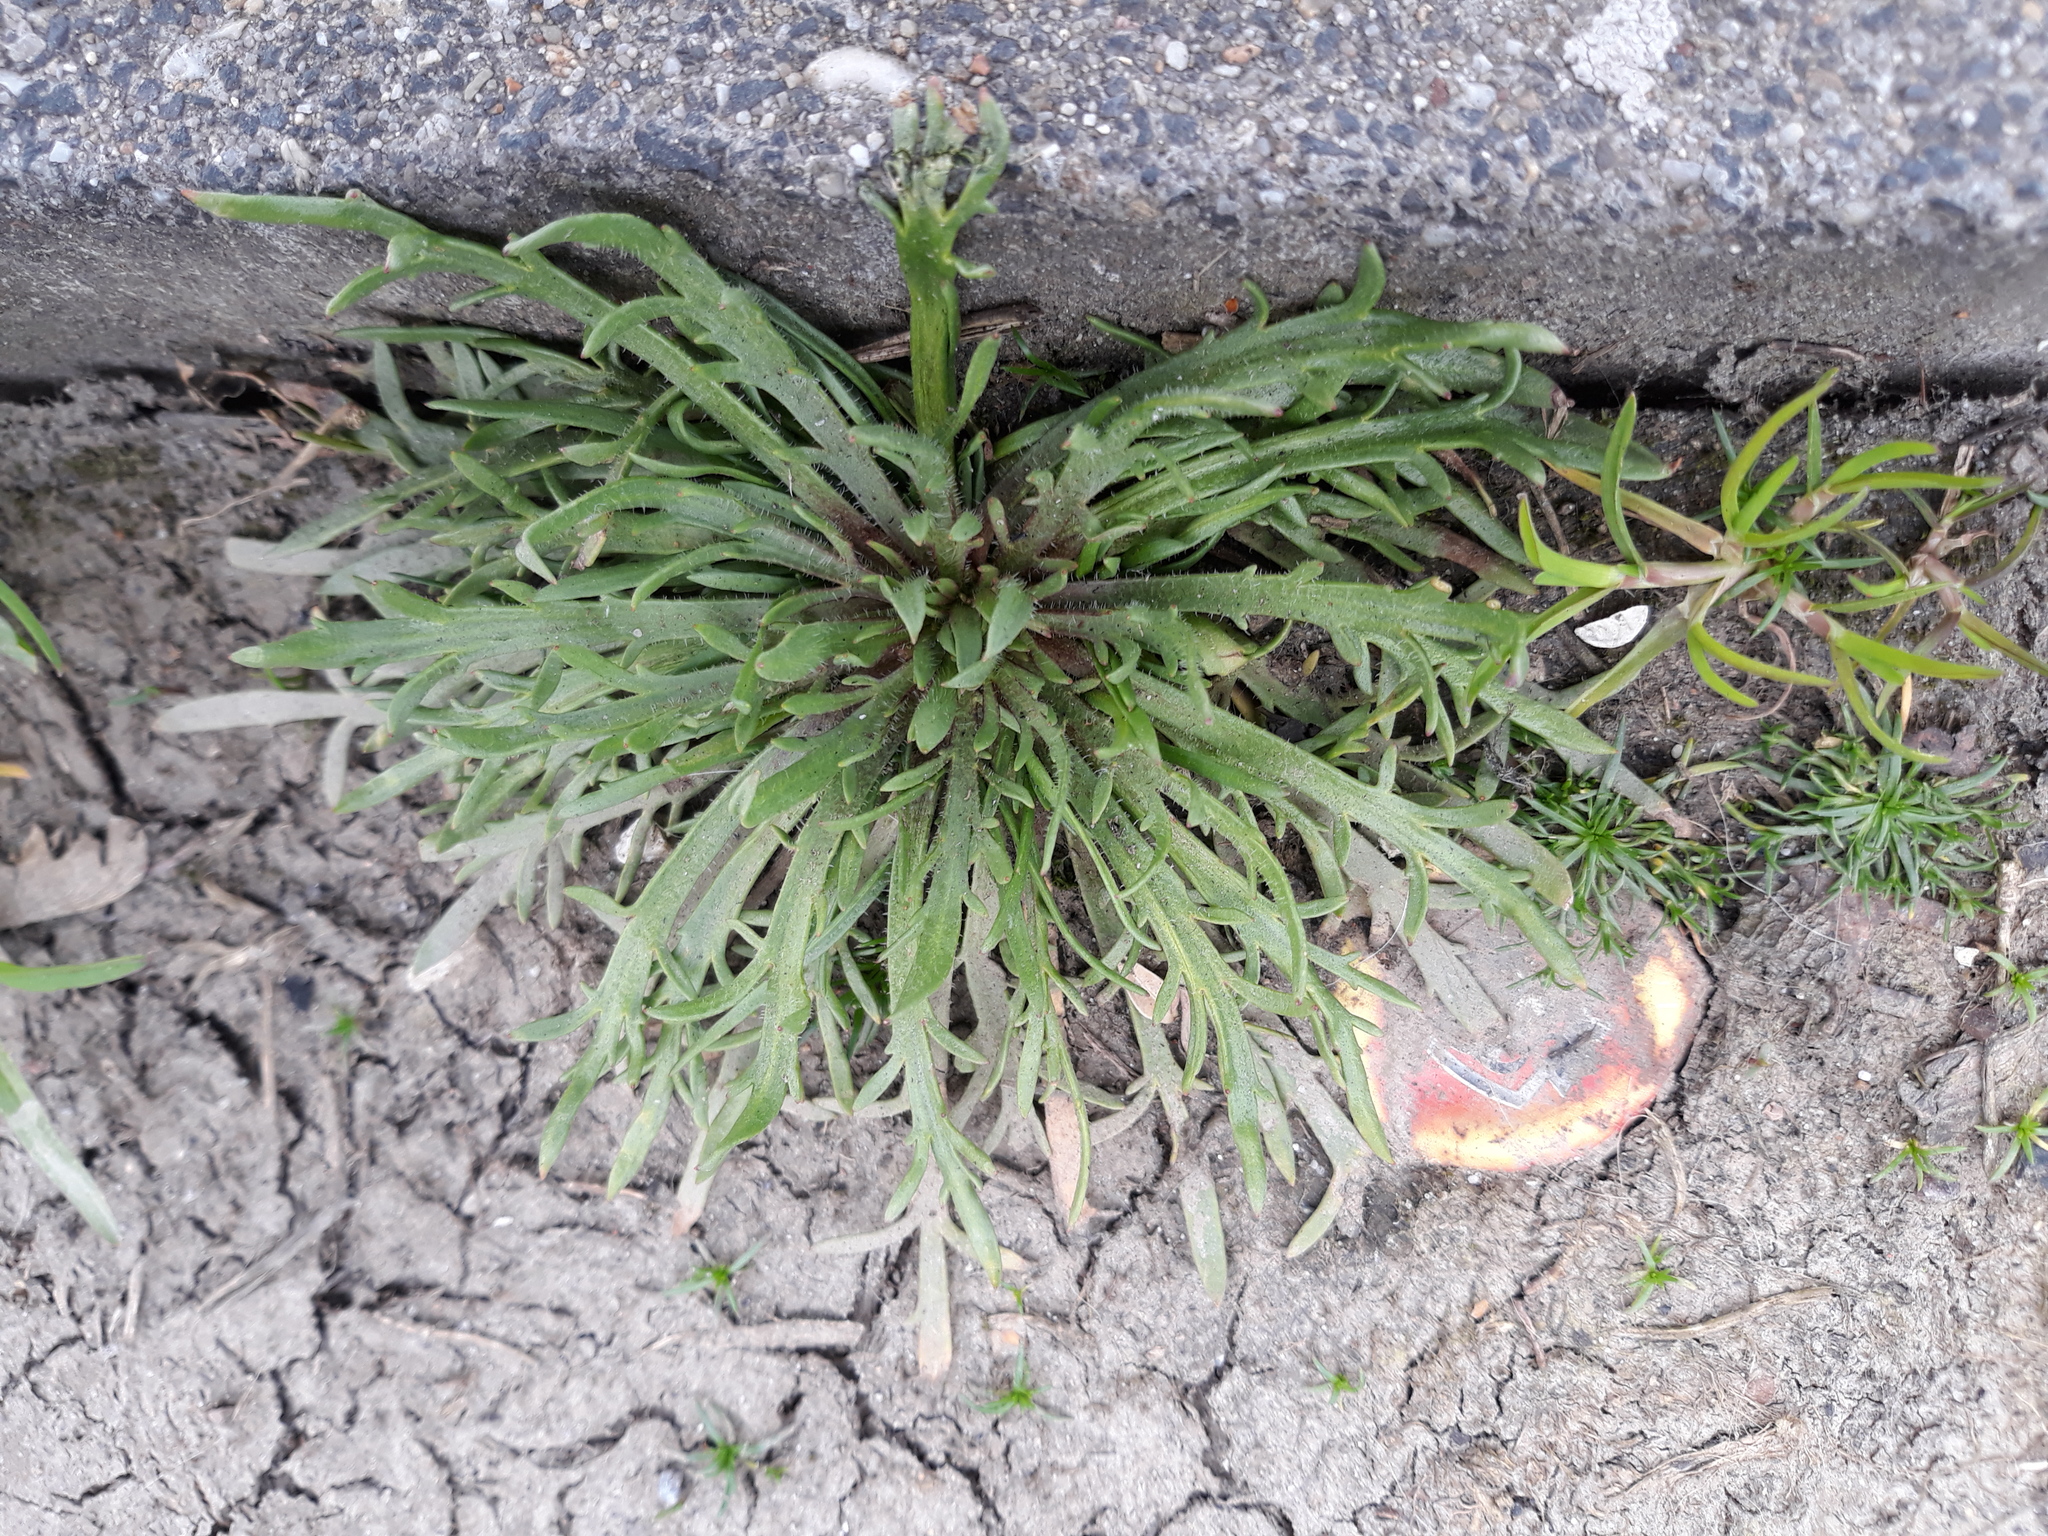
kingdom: Plantae
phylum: Tracheophyta
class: Magnoliopsida
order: Lamiales
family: Plantaginaceae
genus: Plantago
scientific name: Plantago coronopus
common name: Buck's-horn plantain
